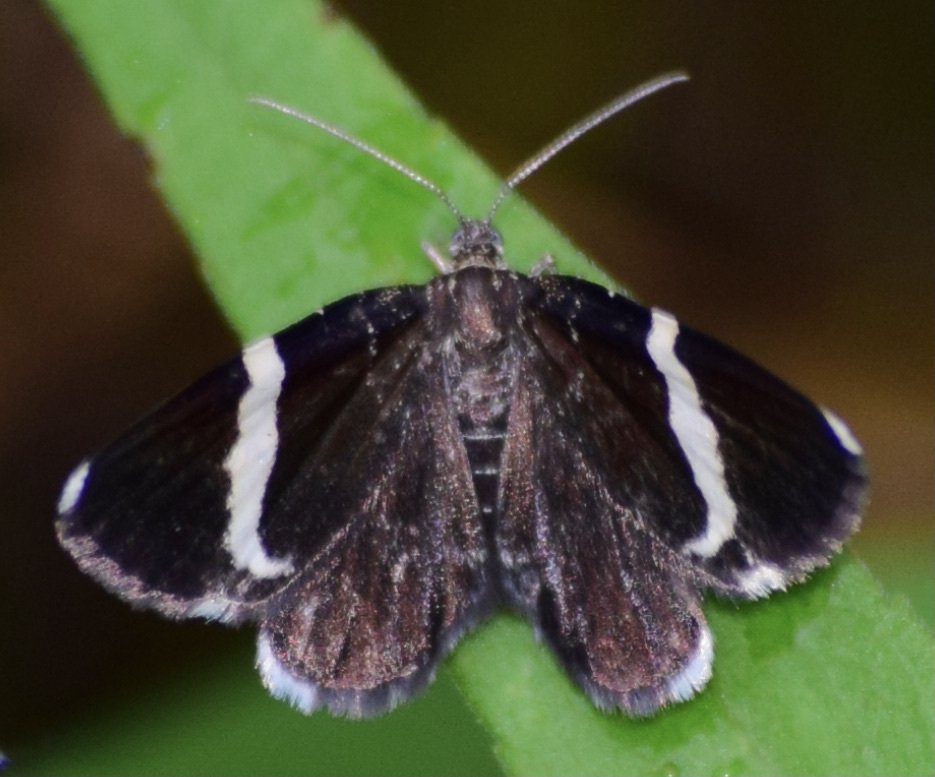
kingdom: Animalia
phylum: Arthropoda
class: Insecta
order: Lepidoptera
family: Geometridae
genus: Trichodezia
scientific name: Trichodezia albovittata
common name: White striped black
